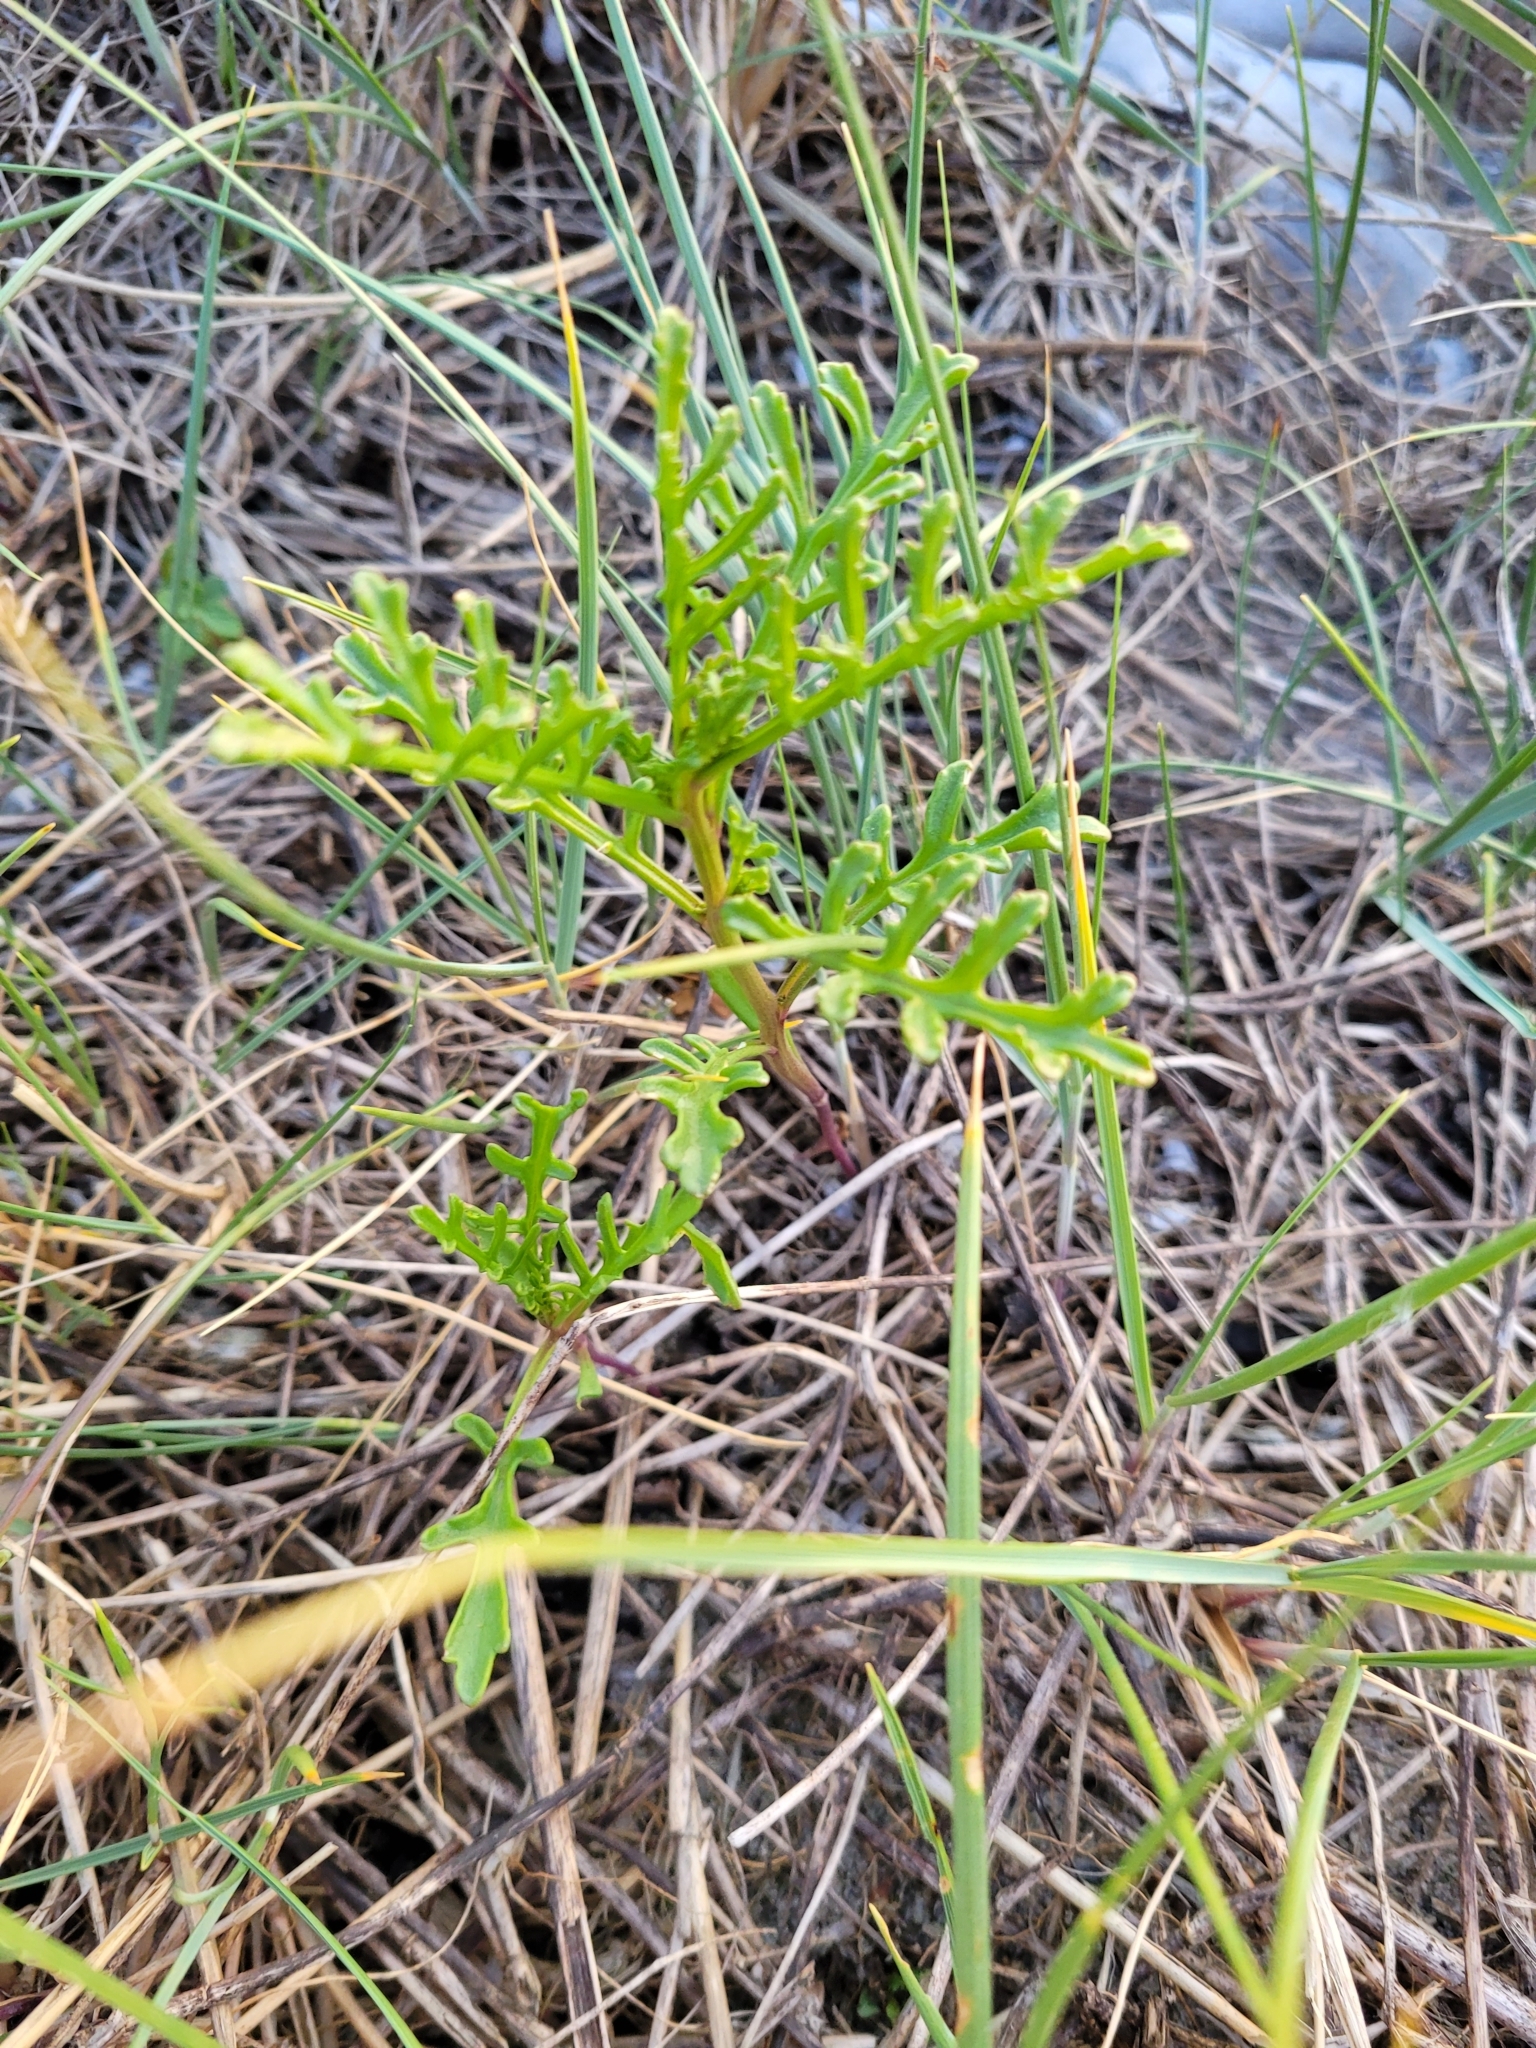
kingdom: Plantae
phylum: Tracheophyta
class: Magnoliopsida
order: Brassicales
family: Brassicaceae
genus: Cakile
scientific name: Cakile maritima
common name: Sea rocket
